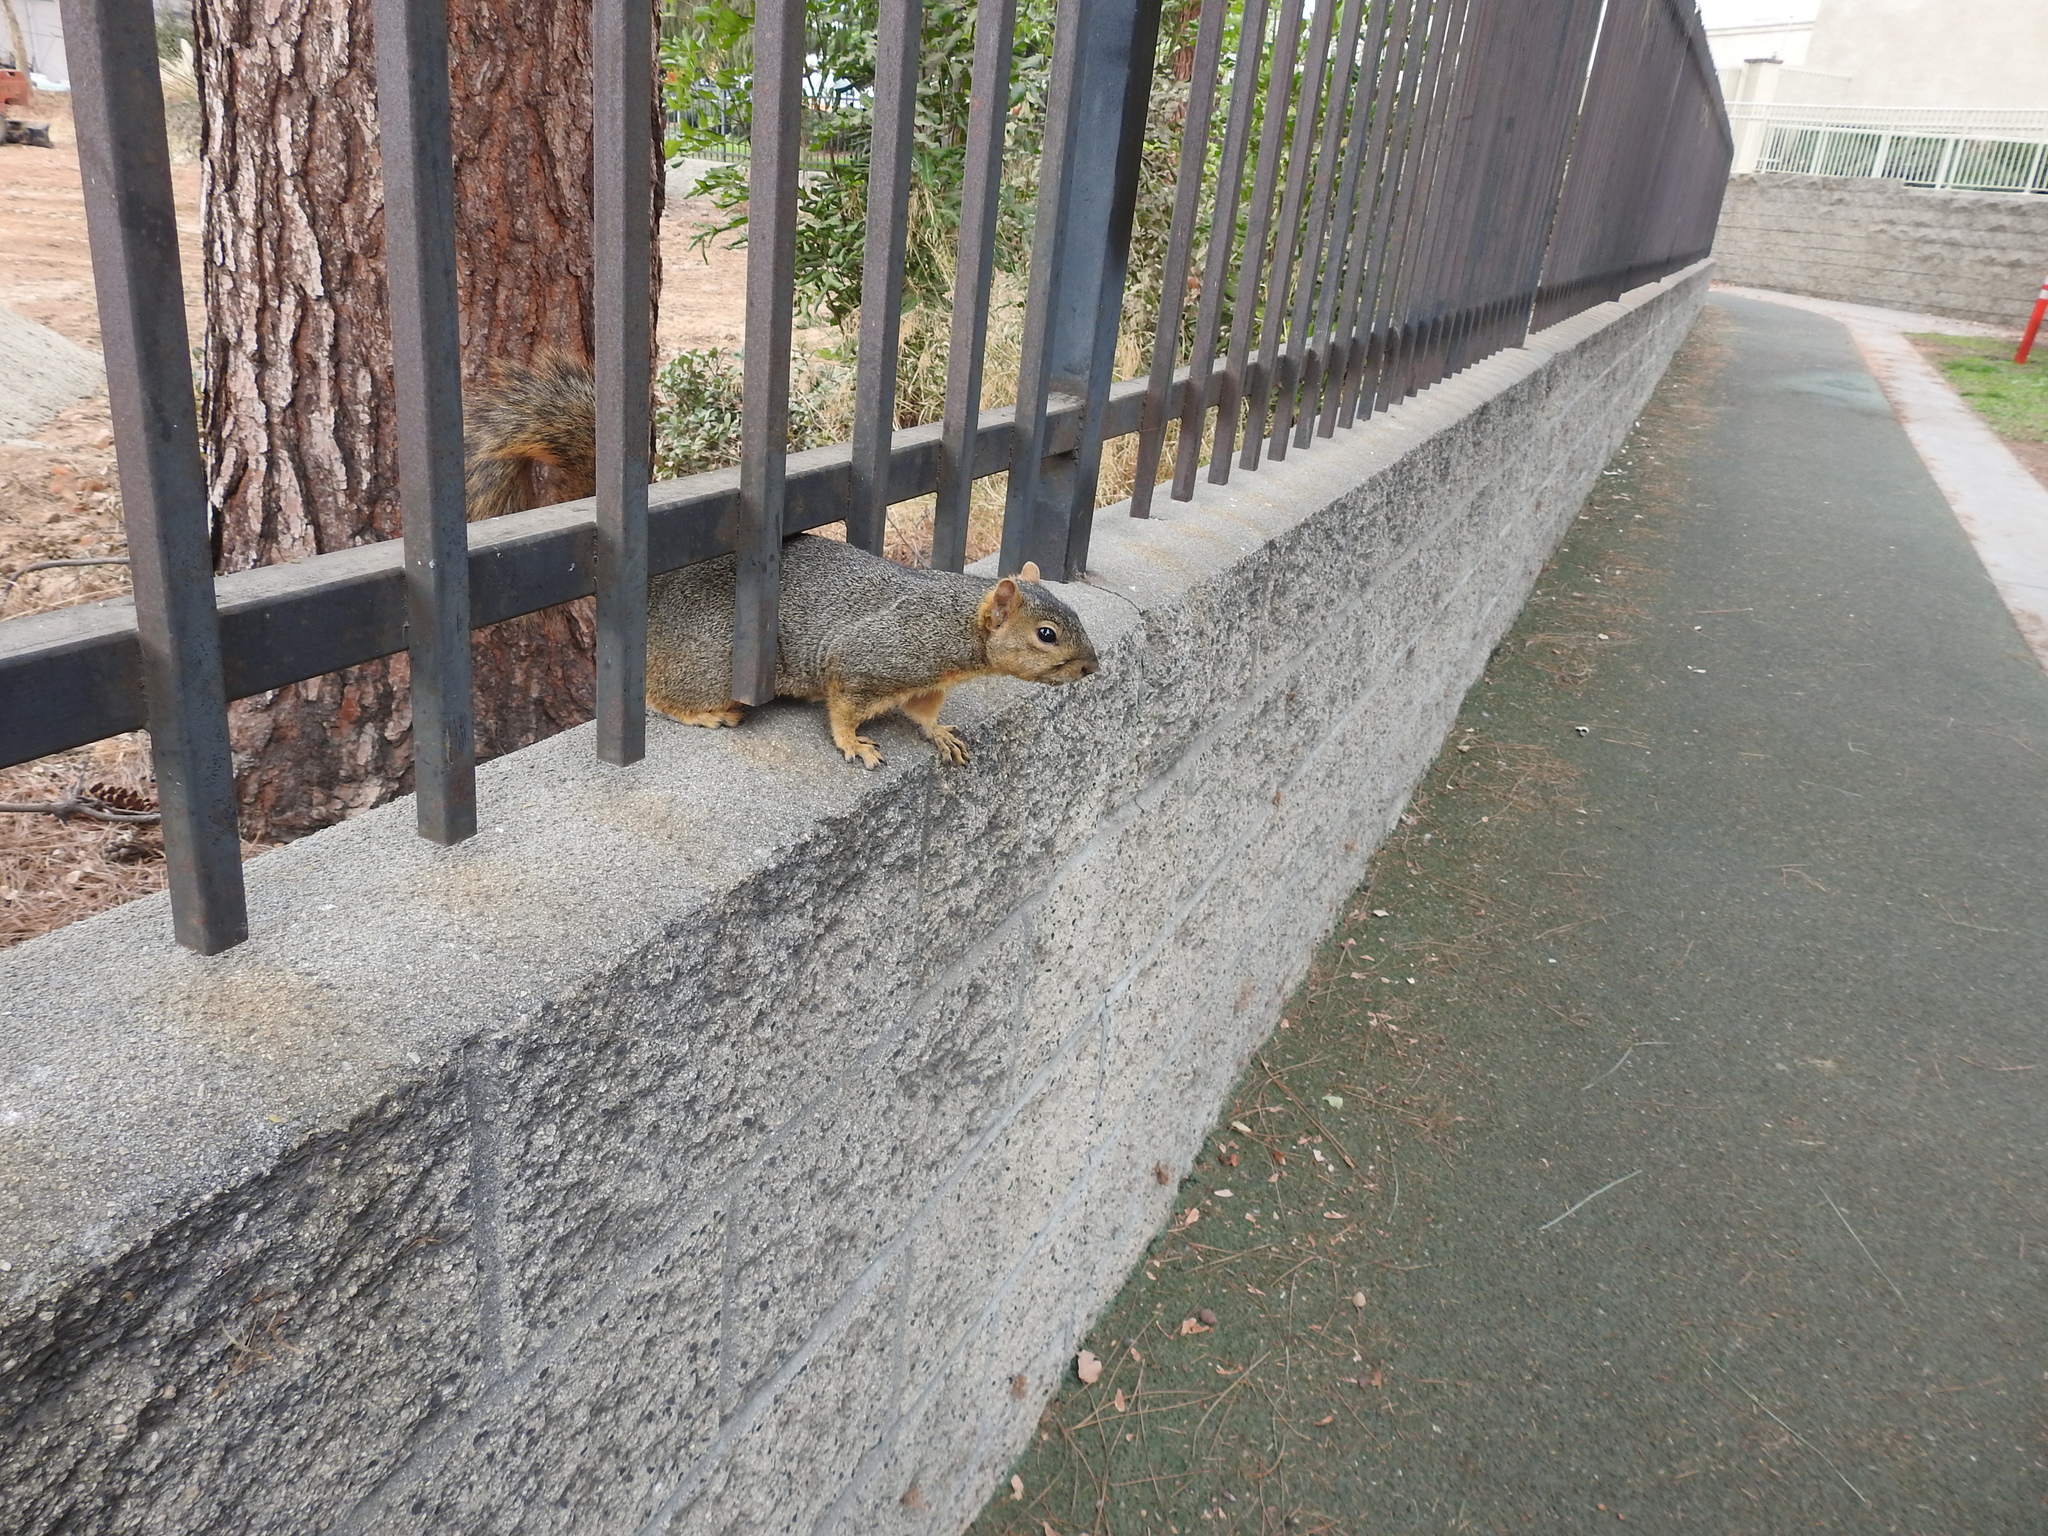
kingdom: Animalia
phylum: Chordata
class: Mammalia
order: Rodentia
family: Sciuridae
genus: Sciurus
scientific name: Sciurus niger
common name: Fox squirrel
